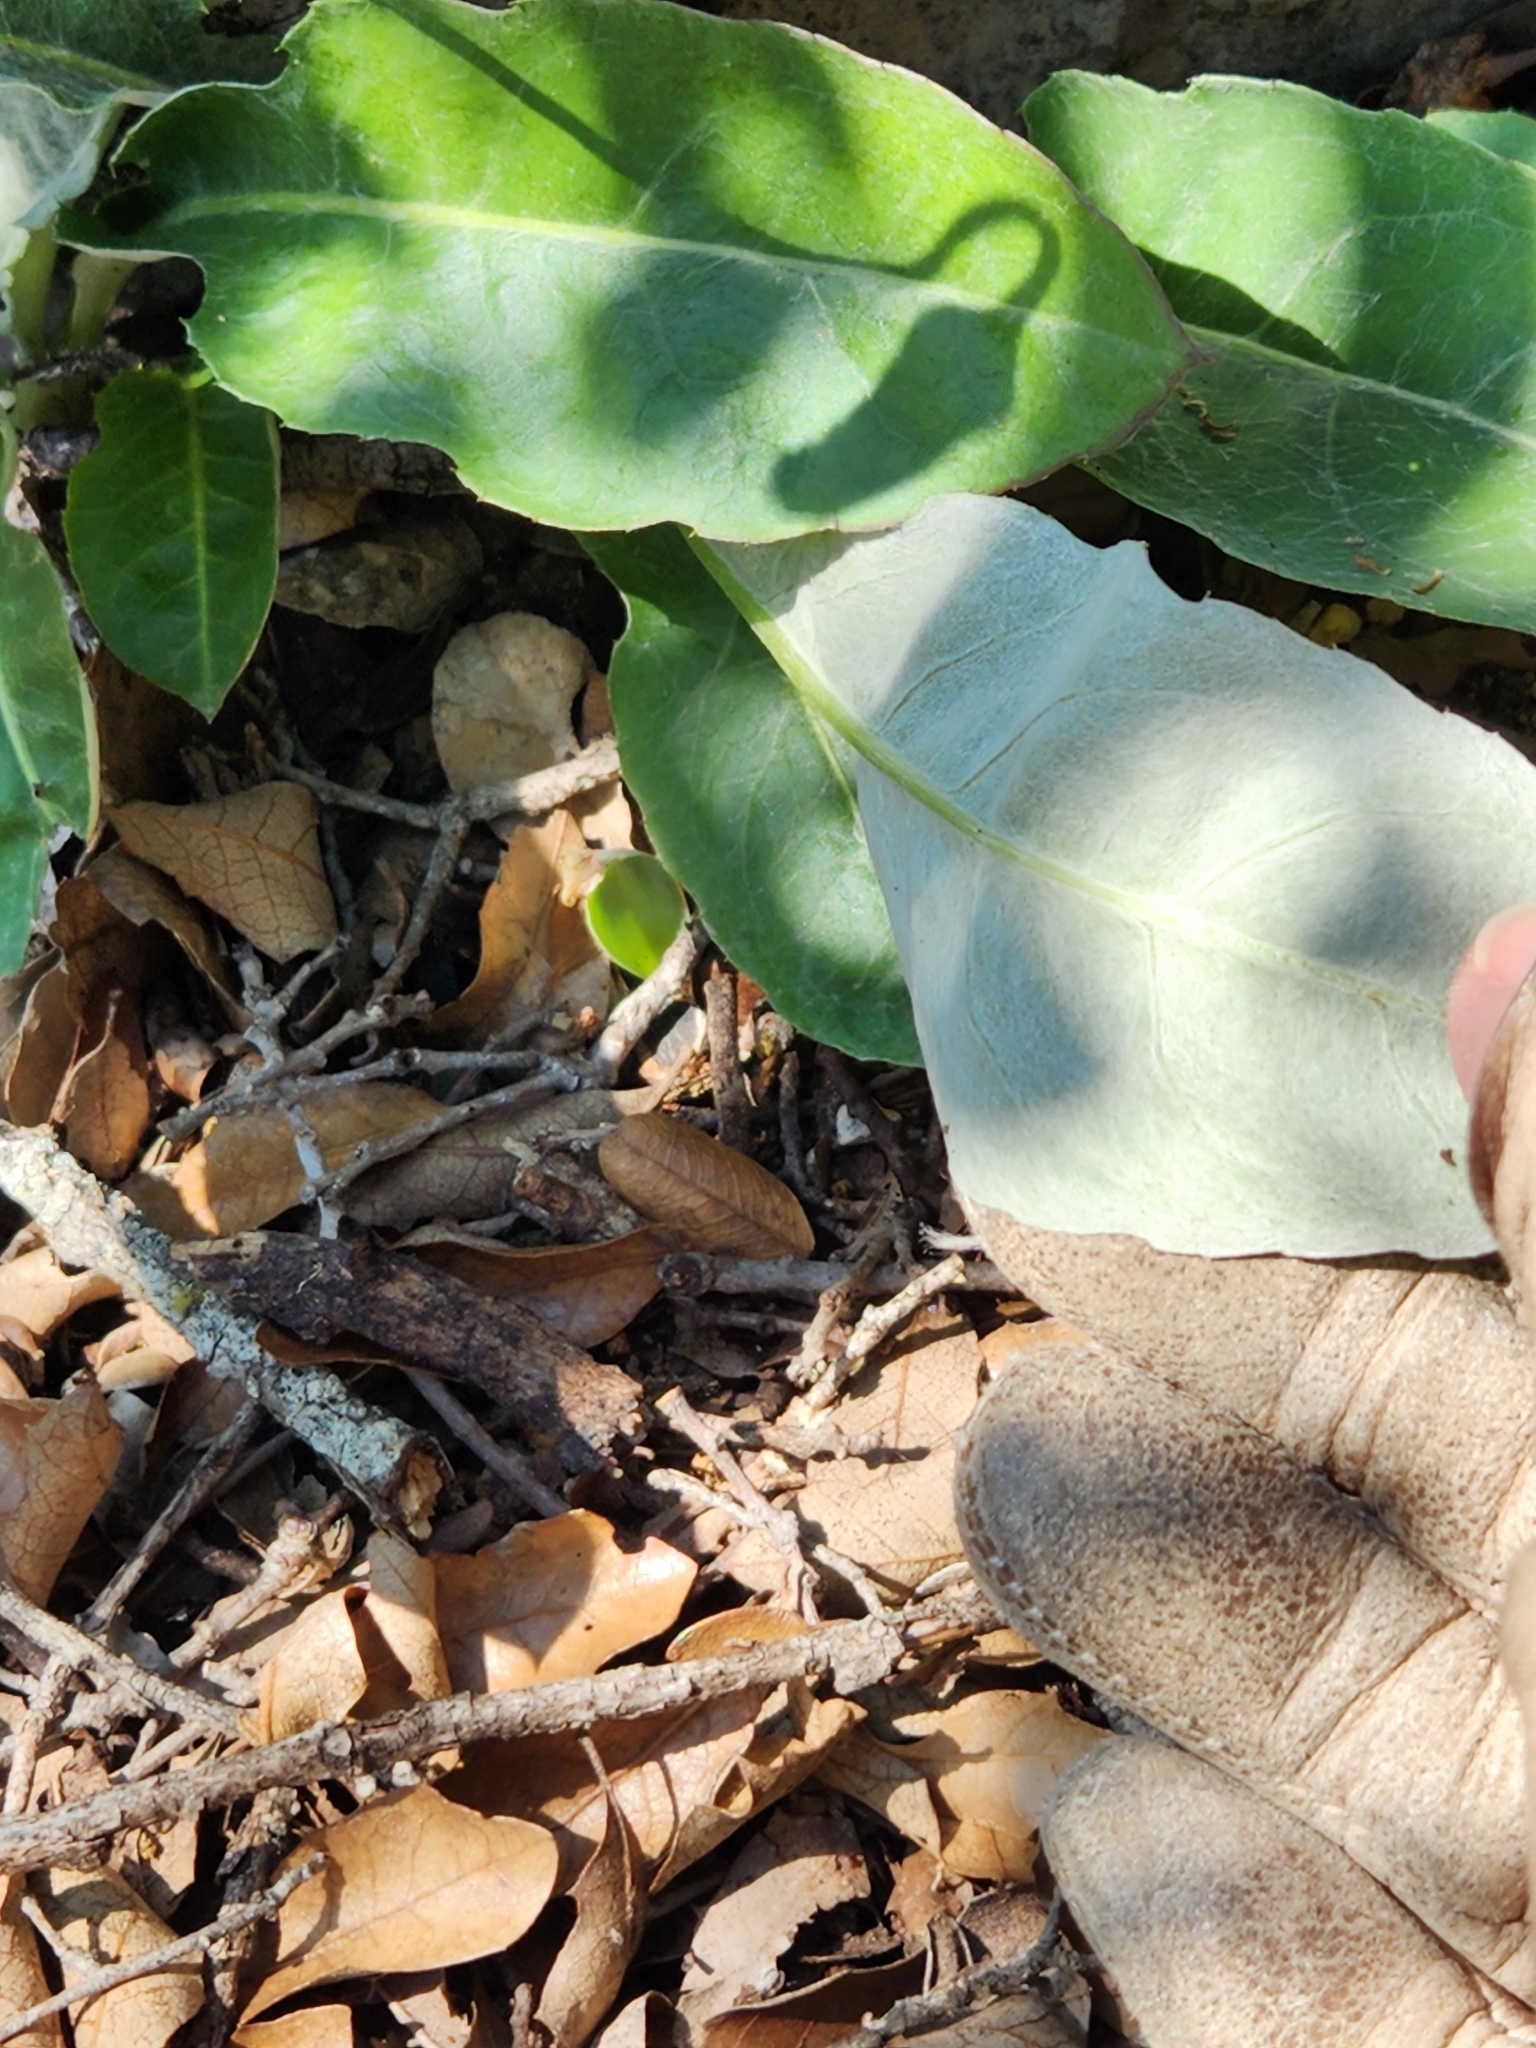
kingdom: Plantae
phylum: Tracheophyta
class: Magnoliopsida
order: Asterales
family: Asteraceae
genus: Chaptalia
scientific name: Chaptalia texana
